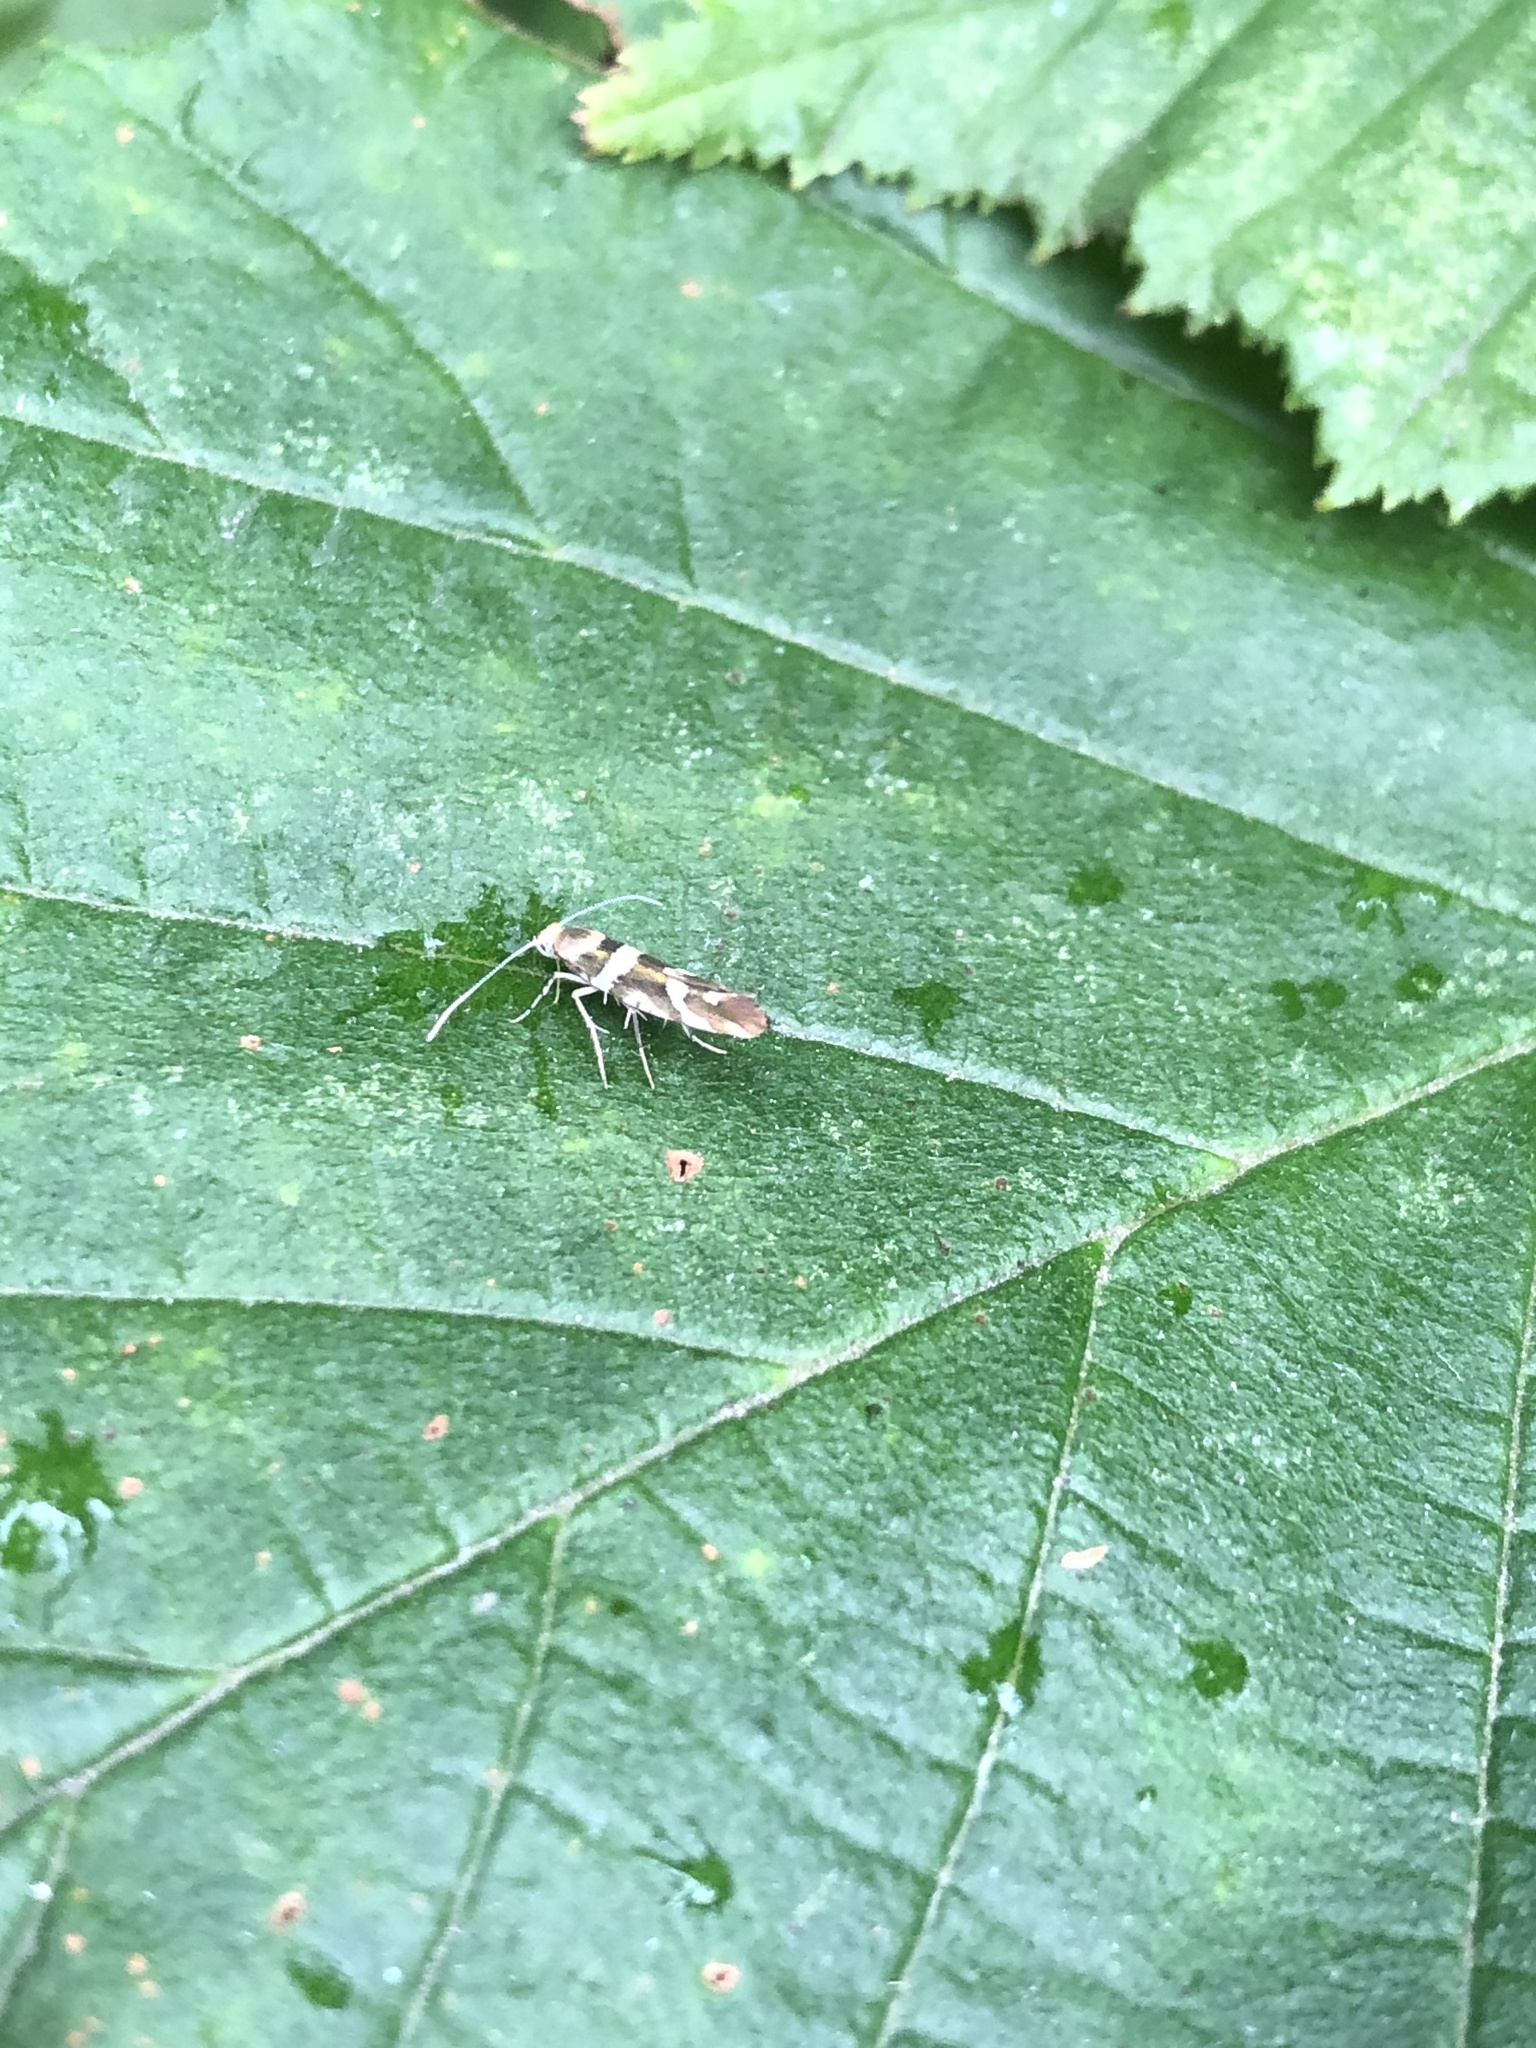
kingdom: Animalia
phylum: Arthropoda
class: Insecta
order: Lepidoptera
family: Argyresthiidae
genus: Argyresthia
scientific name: Argyresthia goedartella
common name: Golden argent
